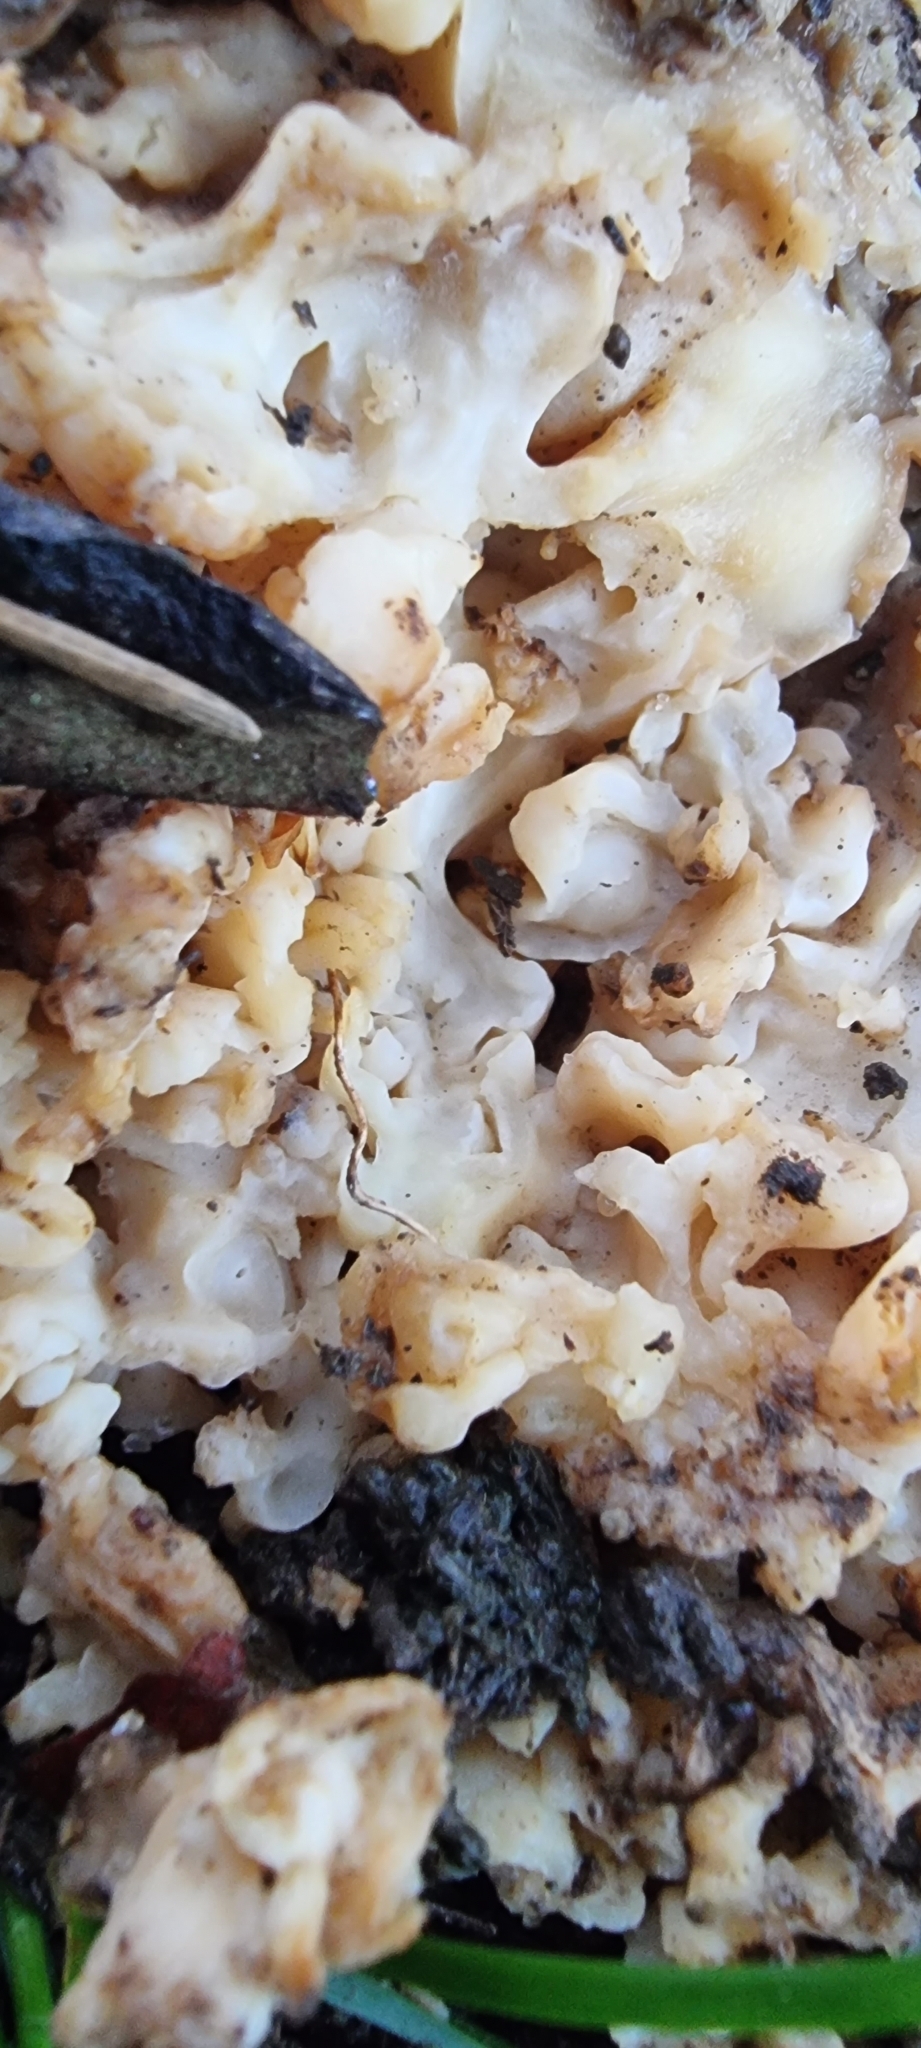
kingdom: Fungi
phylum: Basidiomycota
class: Agaricomycetes
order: Polyporales
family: Sparassidaceae
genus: Sparassis
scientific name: Sparassis crispa
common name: Brain fungus
